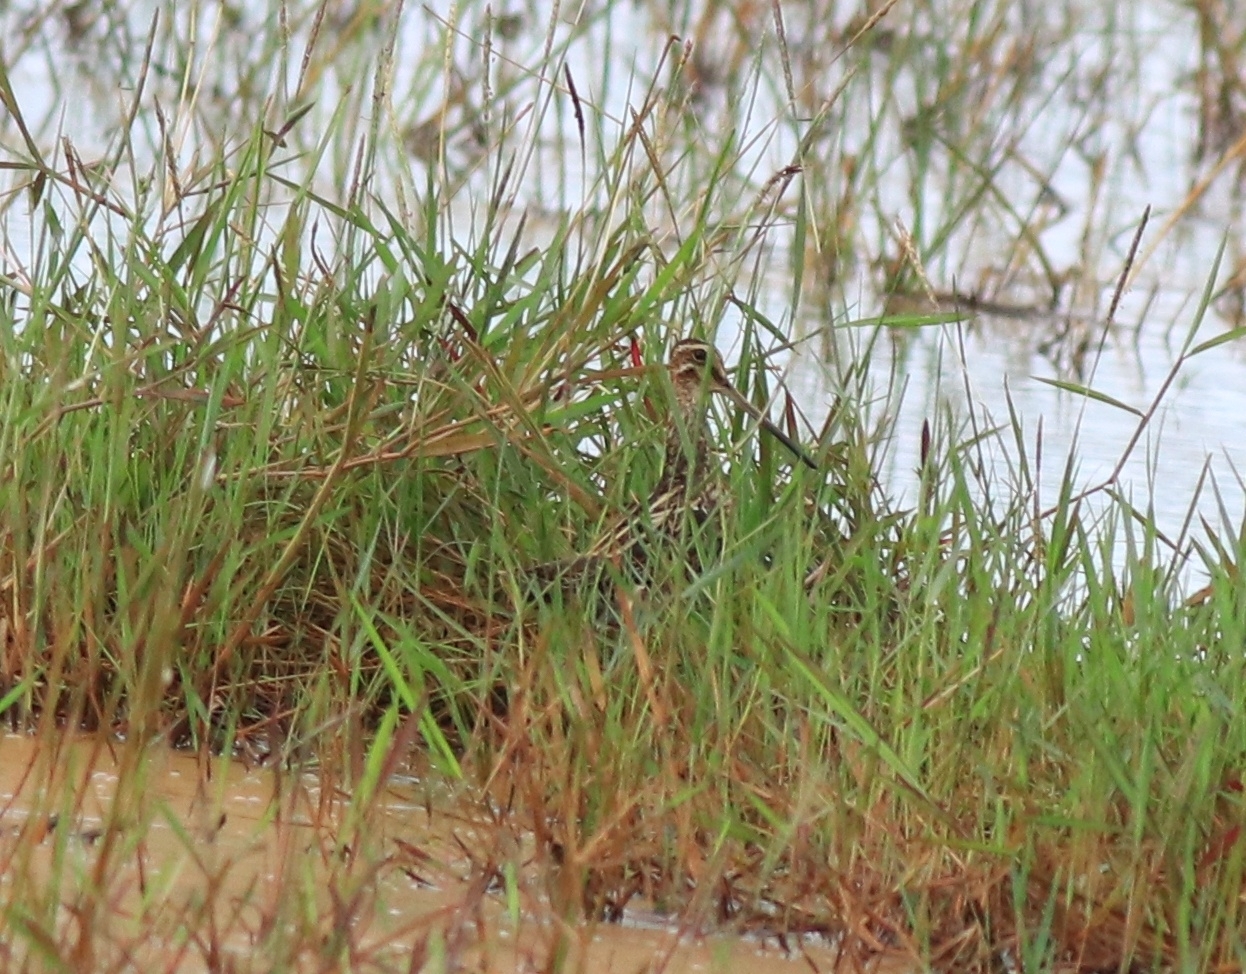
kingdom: Animalia
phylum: Chordata
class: Aves
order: Charadriiformes
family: Scolopacidae
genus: Gallinago
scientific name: Gallinago gallinago
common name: Common snipe
